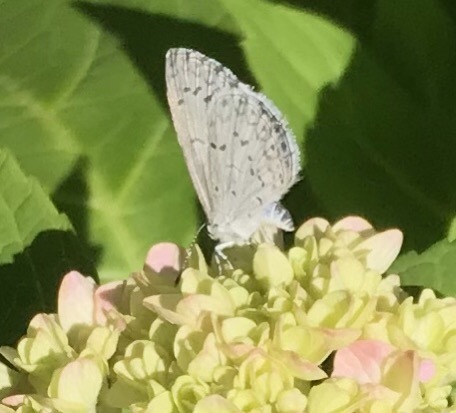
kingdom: Animalia
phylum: Arthropoda
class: Insecta
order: Lepidoptera
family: Lycaenidae
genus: Cyaniris
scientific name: Cyaniris neglecta
